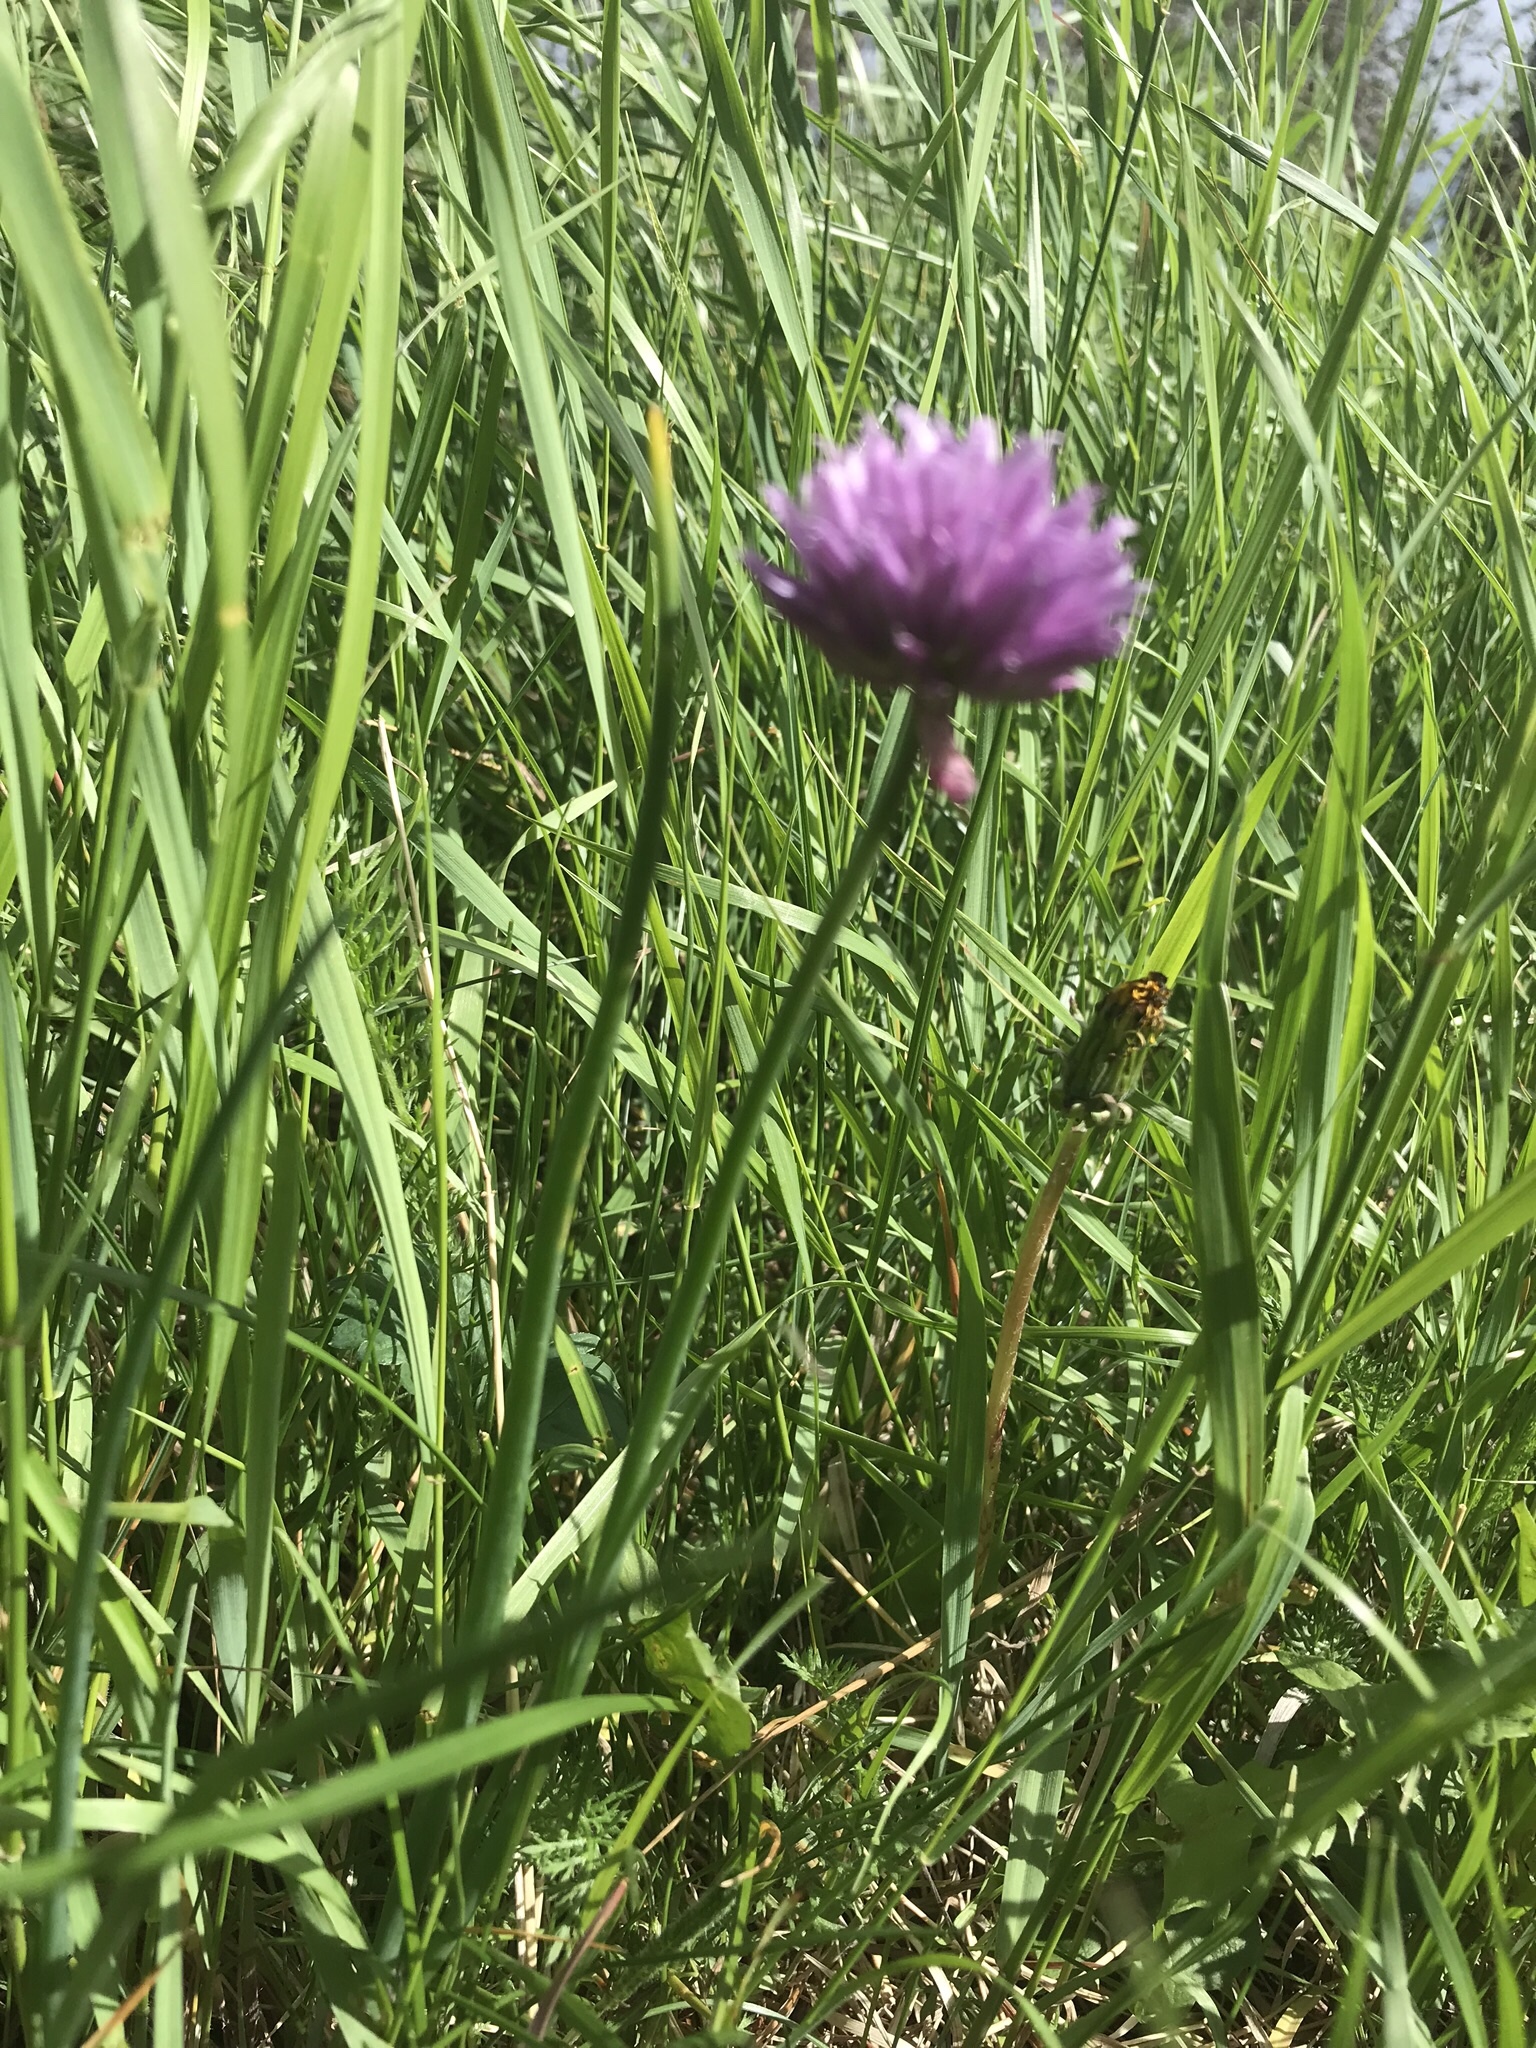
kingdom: Plantae
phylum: Tracheophyta
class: Liliopsida
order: Asparagales
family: Amaryllidaceae
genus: Allium
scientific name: Allium schoenoprasum
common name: Chives
